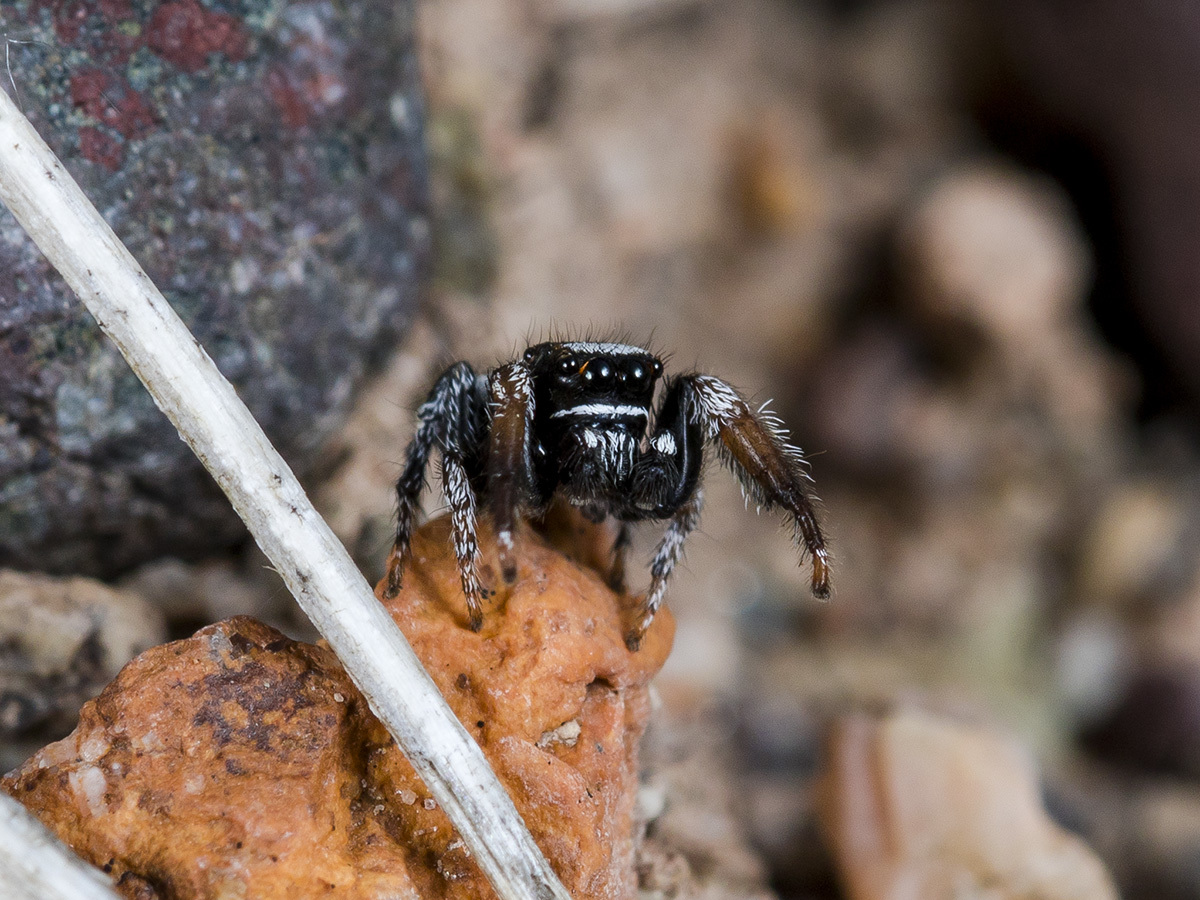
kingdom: Animalia
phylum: Arthropoda
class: Arachnida
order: Araneae
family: Salticidae
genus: Pellenes
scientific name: Pellenes geniculatus
